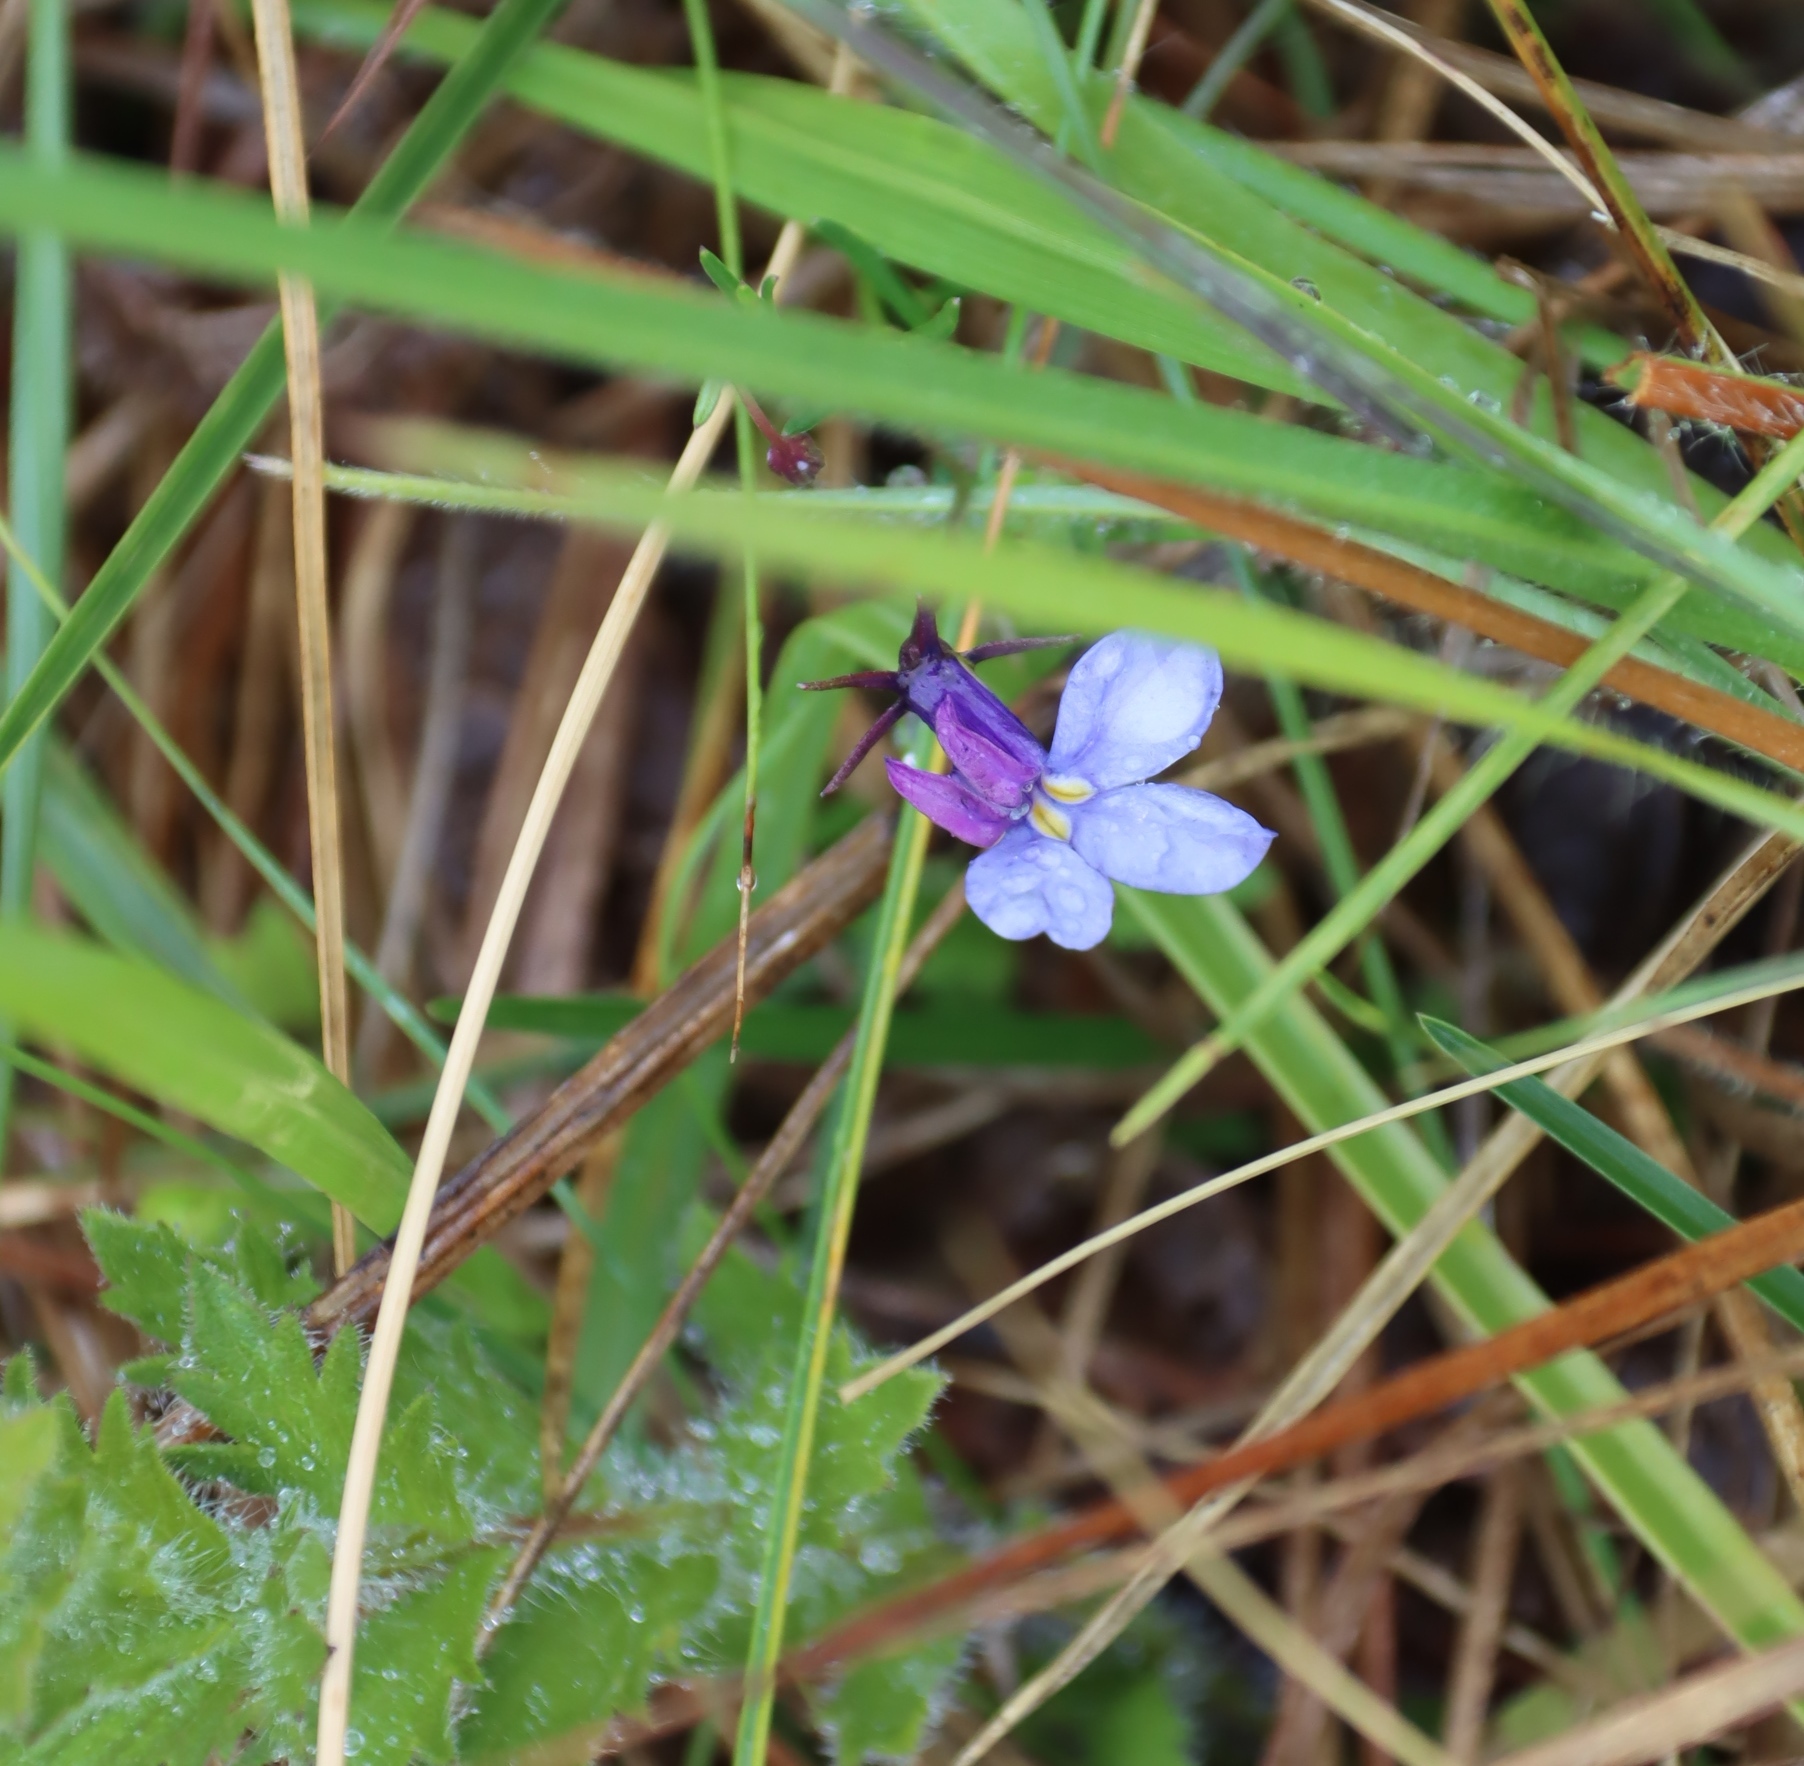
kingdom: Plantae
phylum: Tracheophyta
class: Magnoliopsida
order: Asterales
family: Campanulaceae
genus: Monopsis
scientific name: Monopsis decipiens
